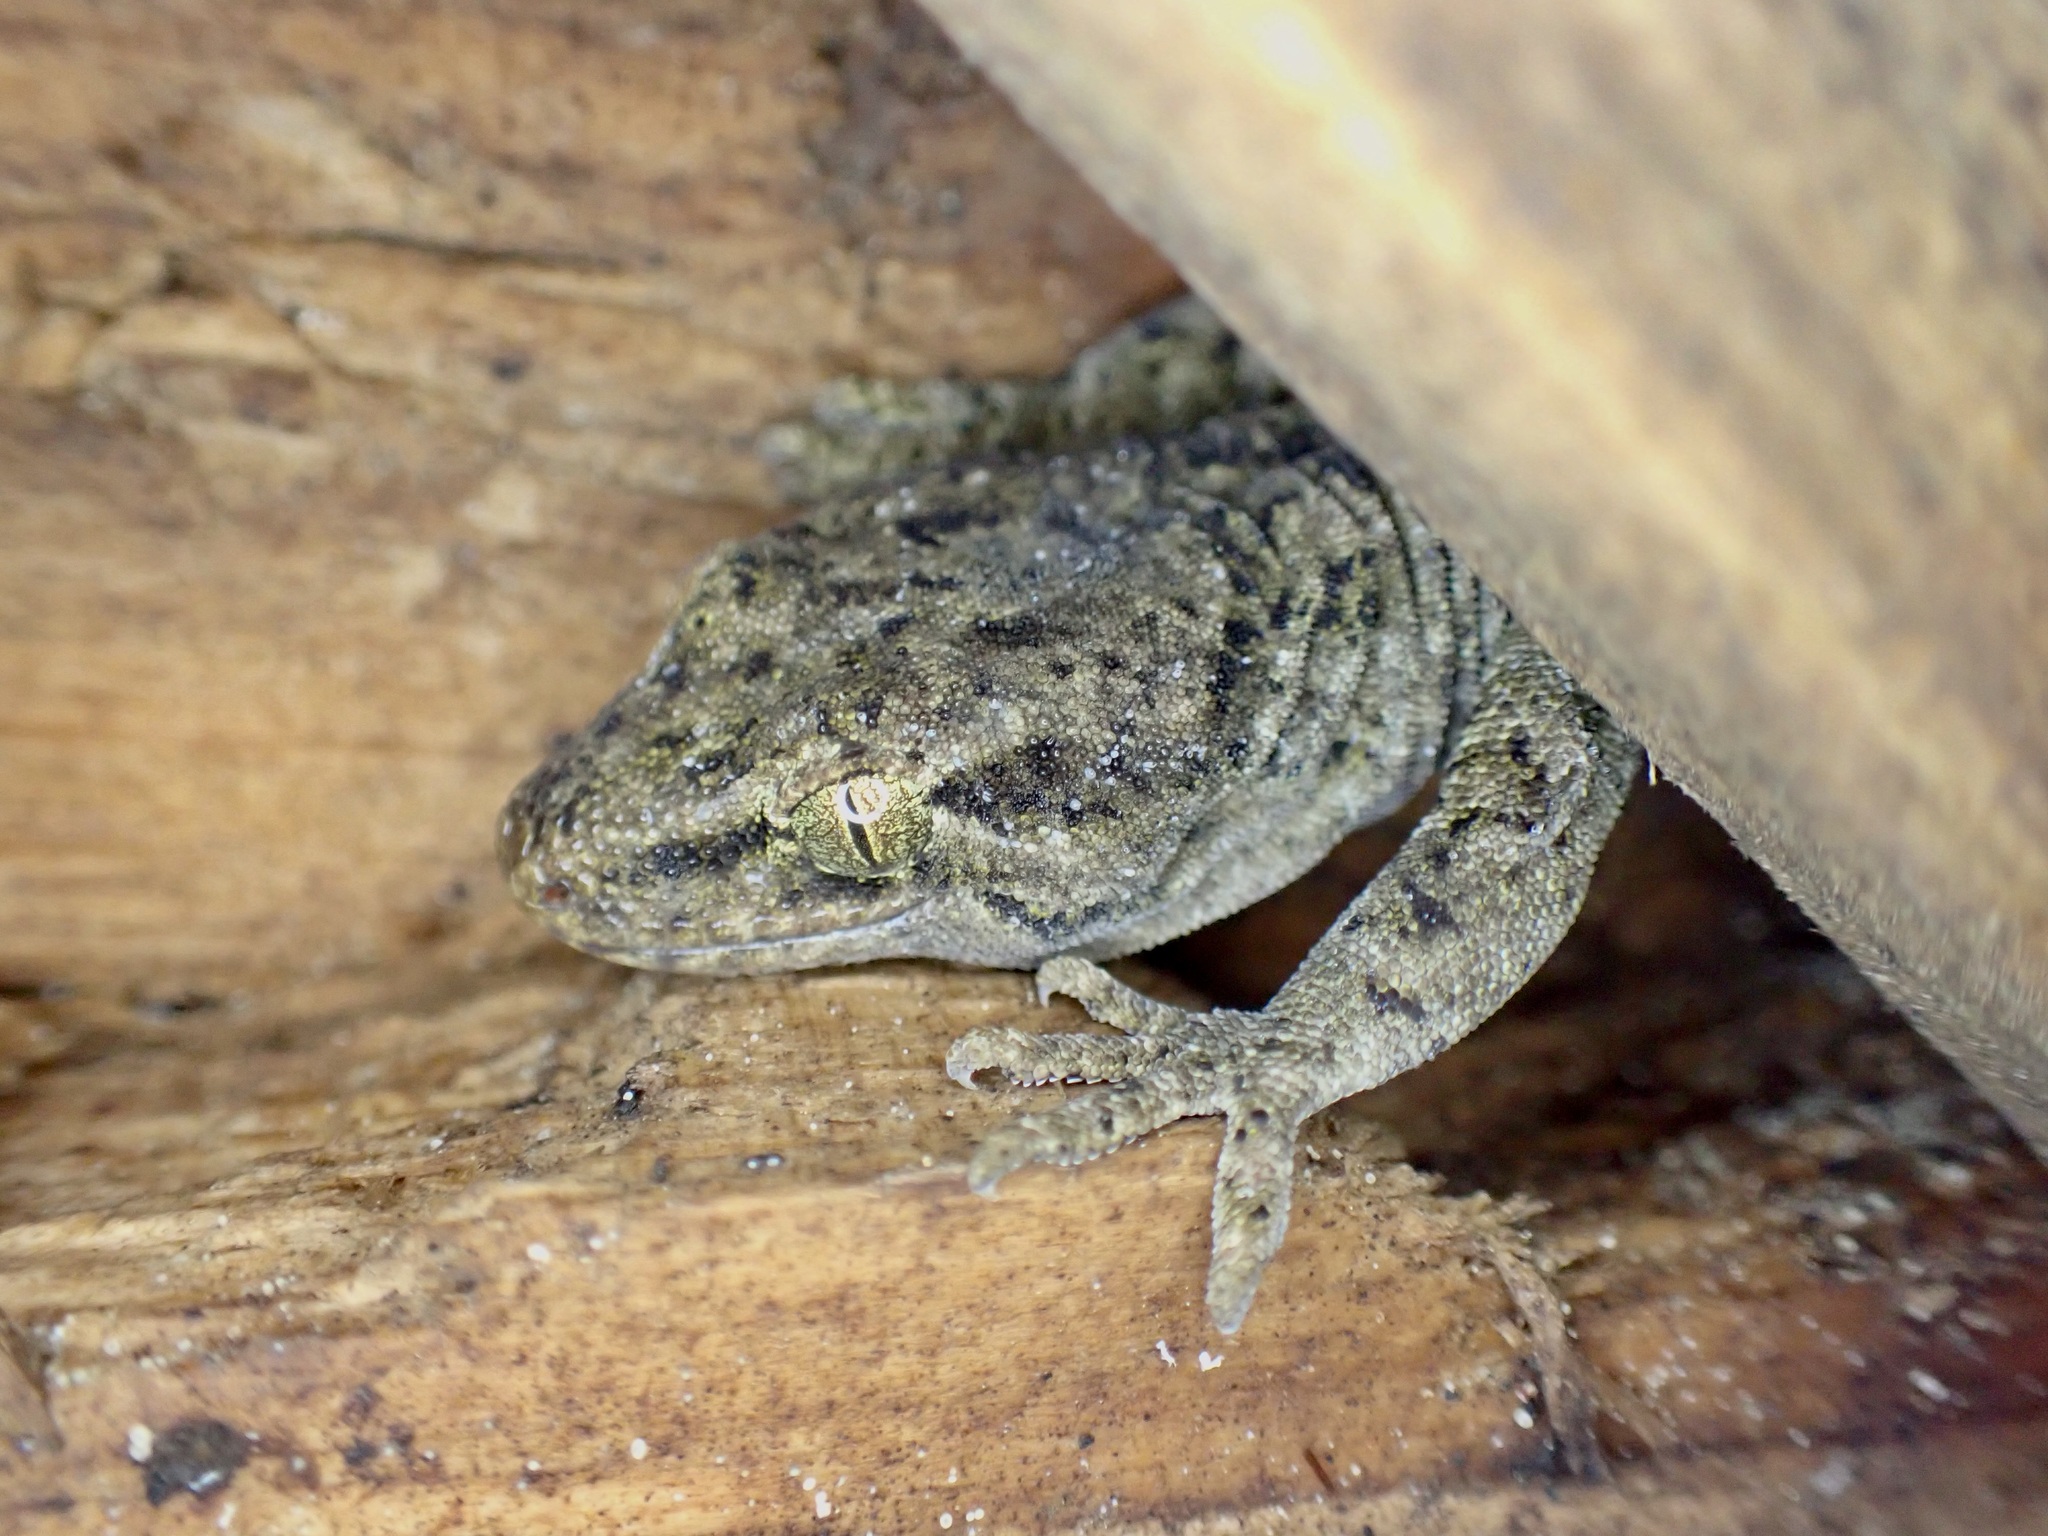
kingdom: Animalia
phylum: Chordata
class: Squamata
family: Diplodactylidae
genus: Woodworthia
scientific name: Woodworthia brunnea
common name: Canterbury gecko
